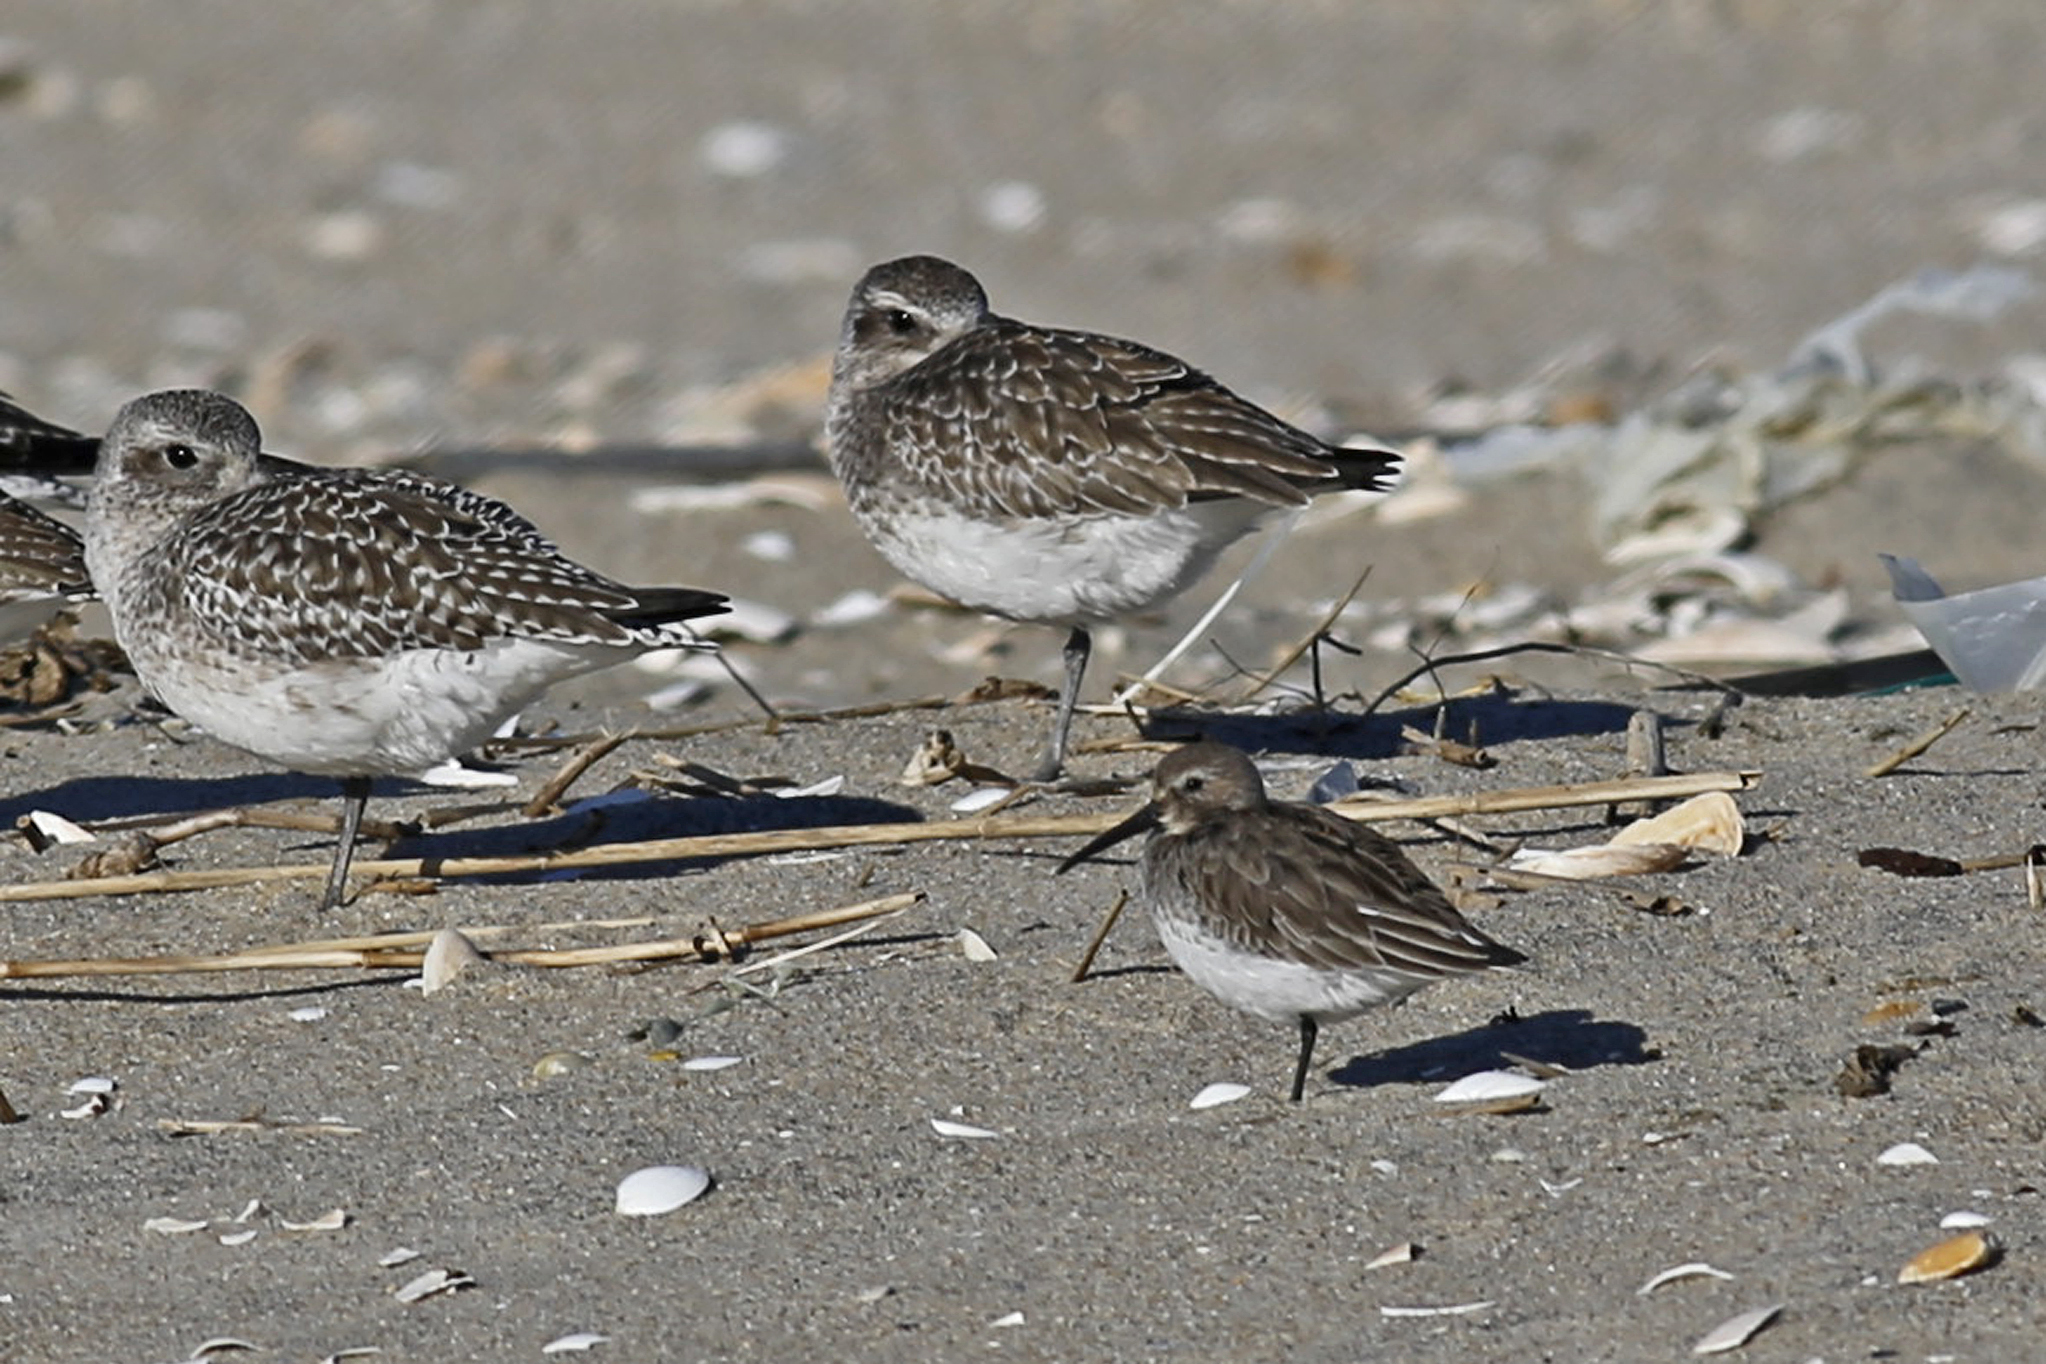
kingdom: Animalia
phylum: Chordata
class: Aves
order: Charadriiformes
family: Scolopacidae
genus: Calidris
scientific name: Calidris alpina
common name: Dunlin
